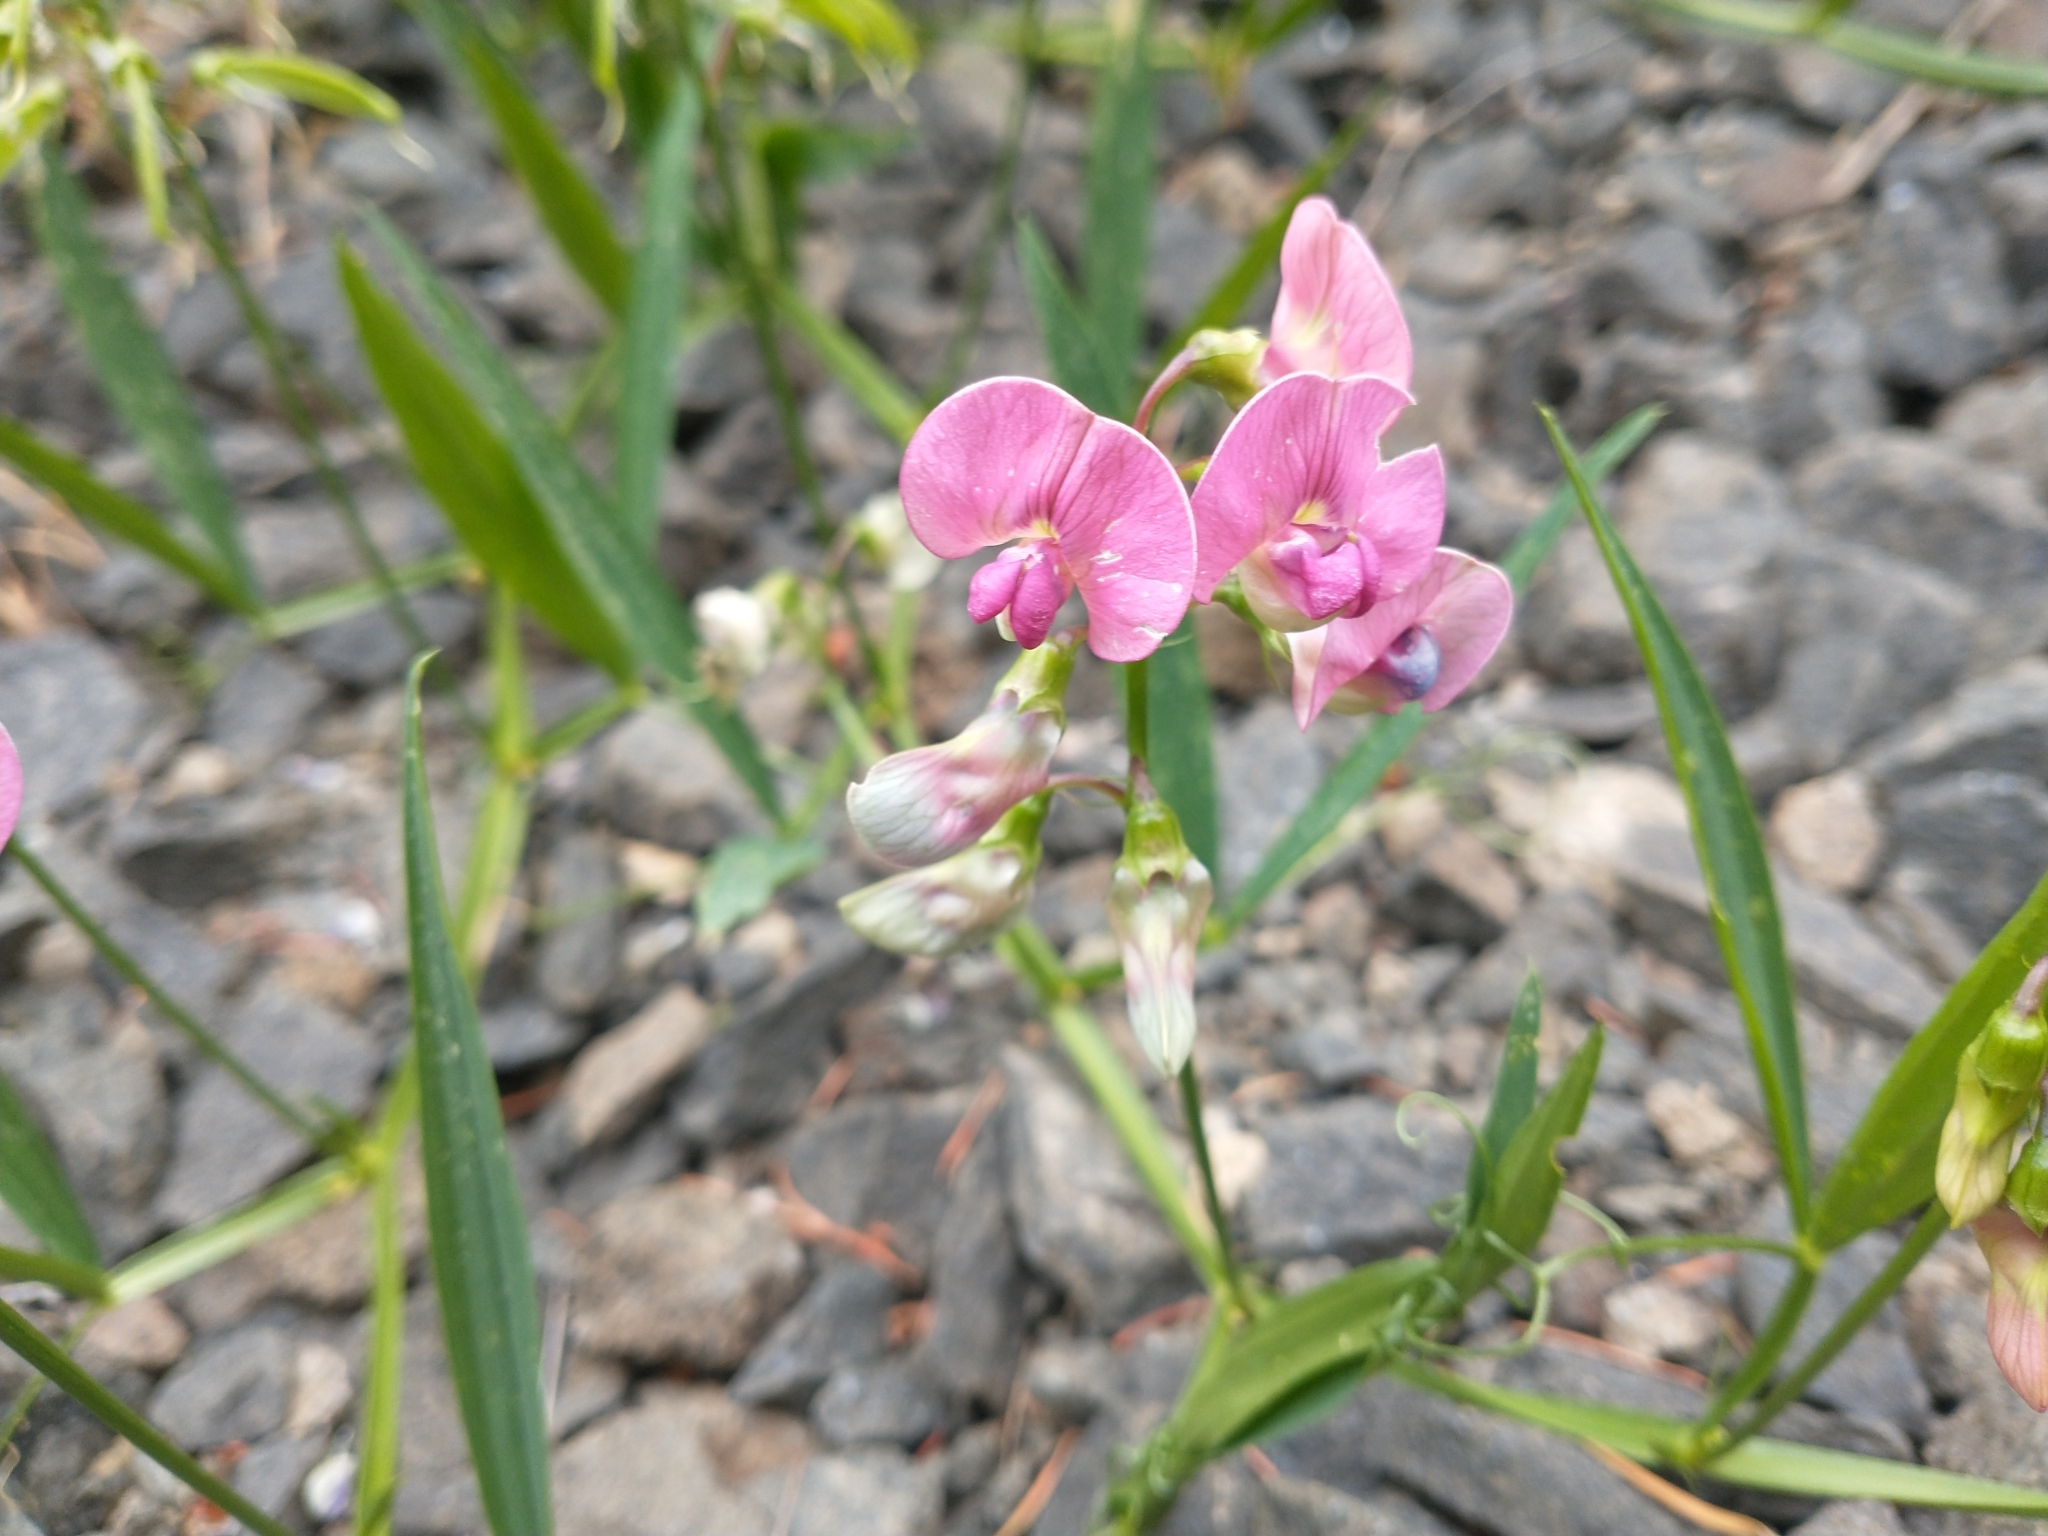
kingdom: Plantae
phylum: Tracheophyta
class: Magnoliopsida
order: Fabales
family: Fabaceae
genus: Lathyrus
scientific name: Lathyrus sylvestris
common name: Flat pea
